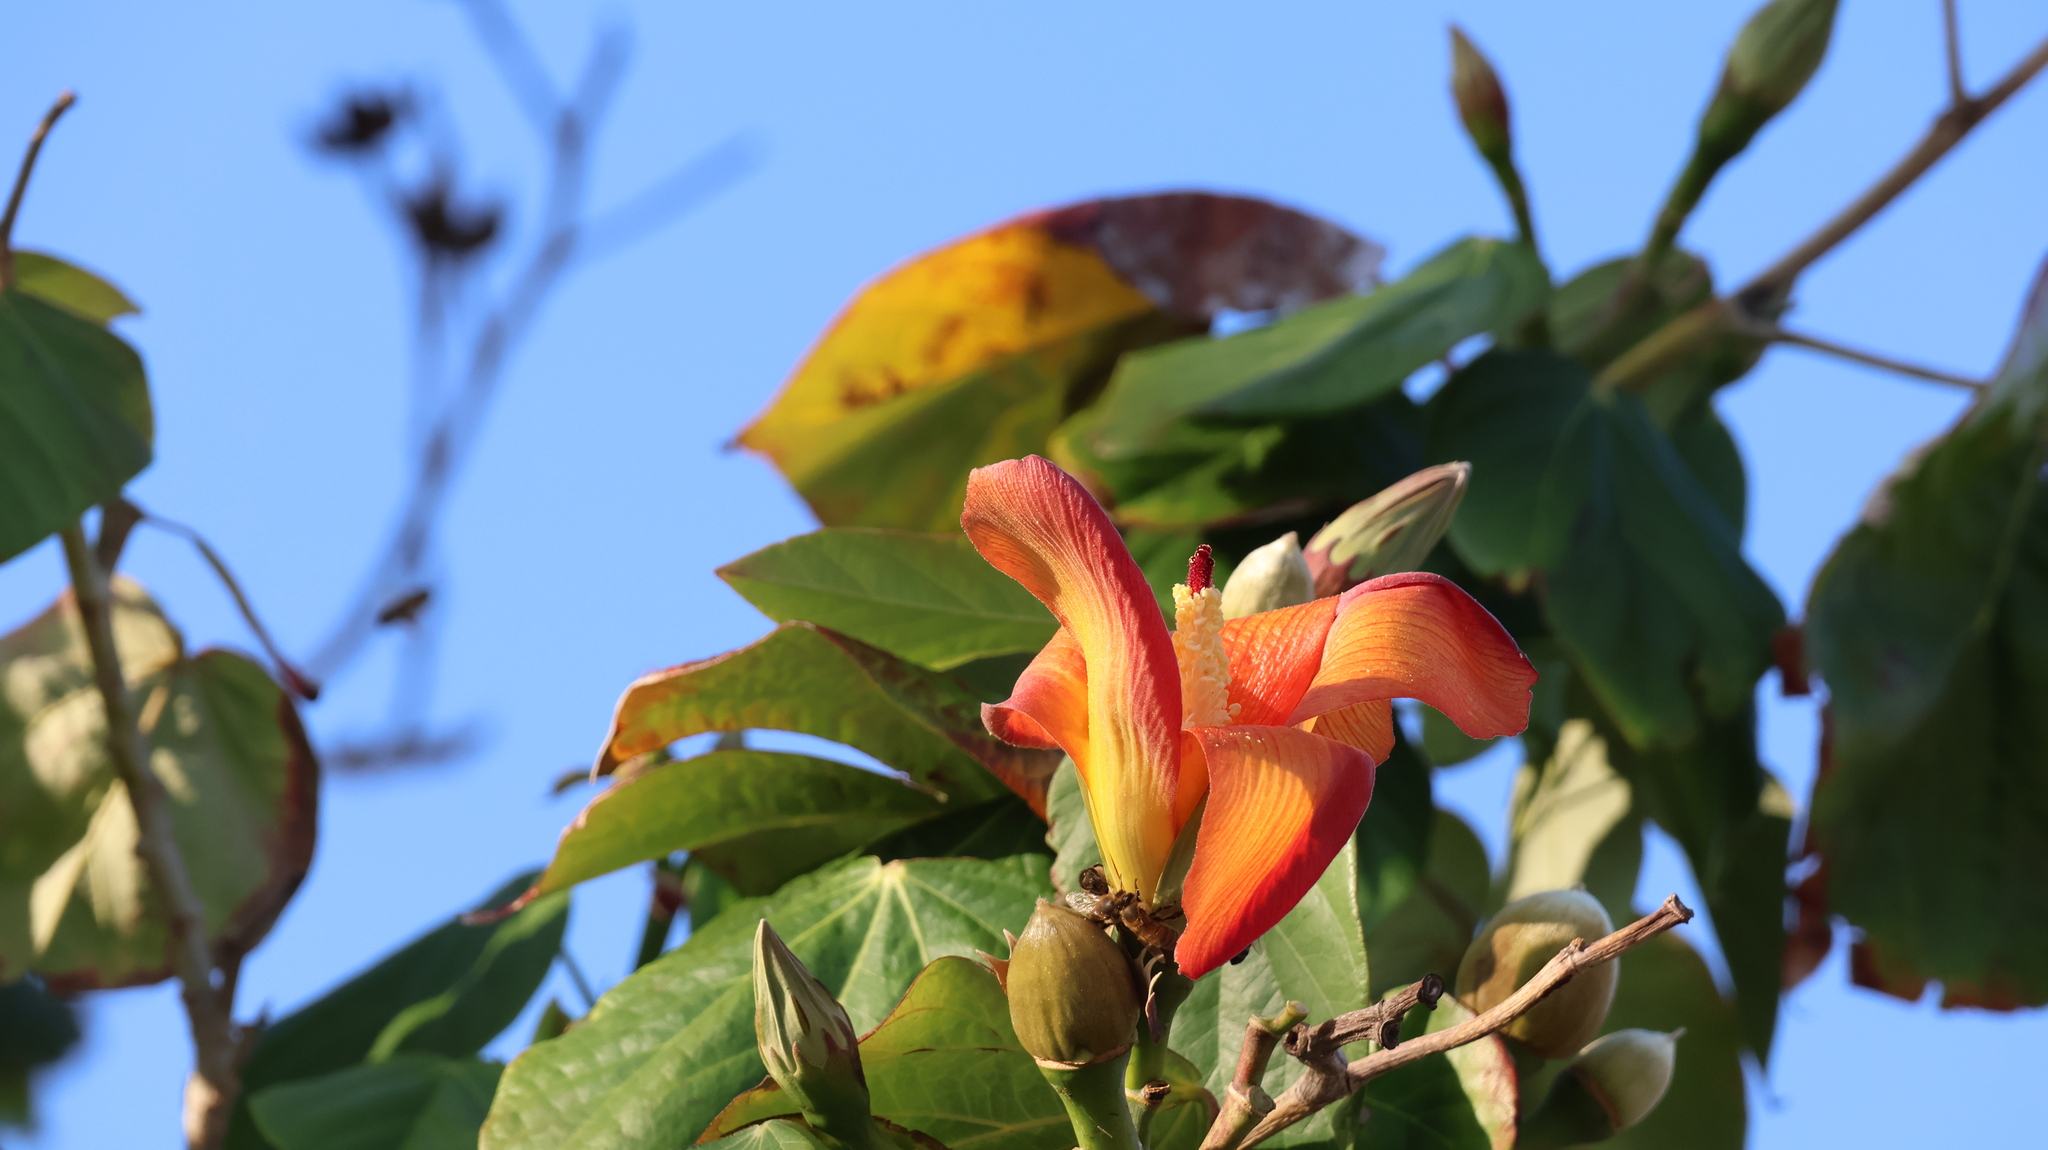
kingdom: Plantae
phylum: Tracheophyta
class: Magnoliopsida
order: Malvales
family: Malvaceae
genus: Talipariti
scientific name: Talipariti
